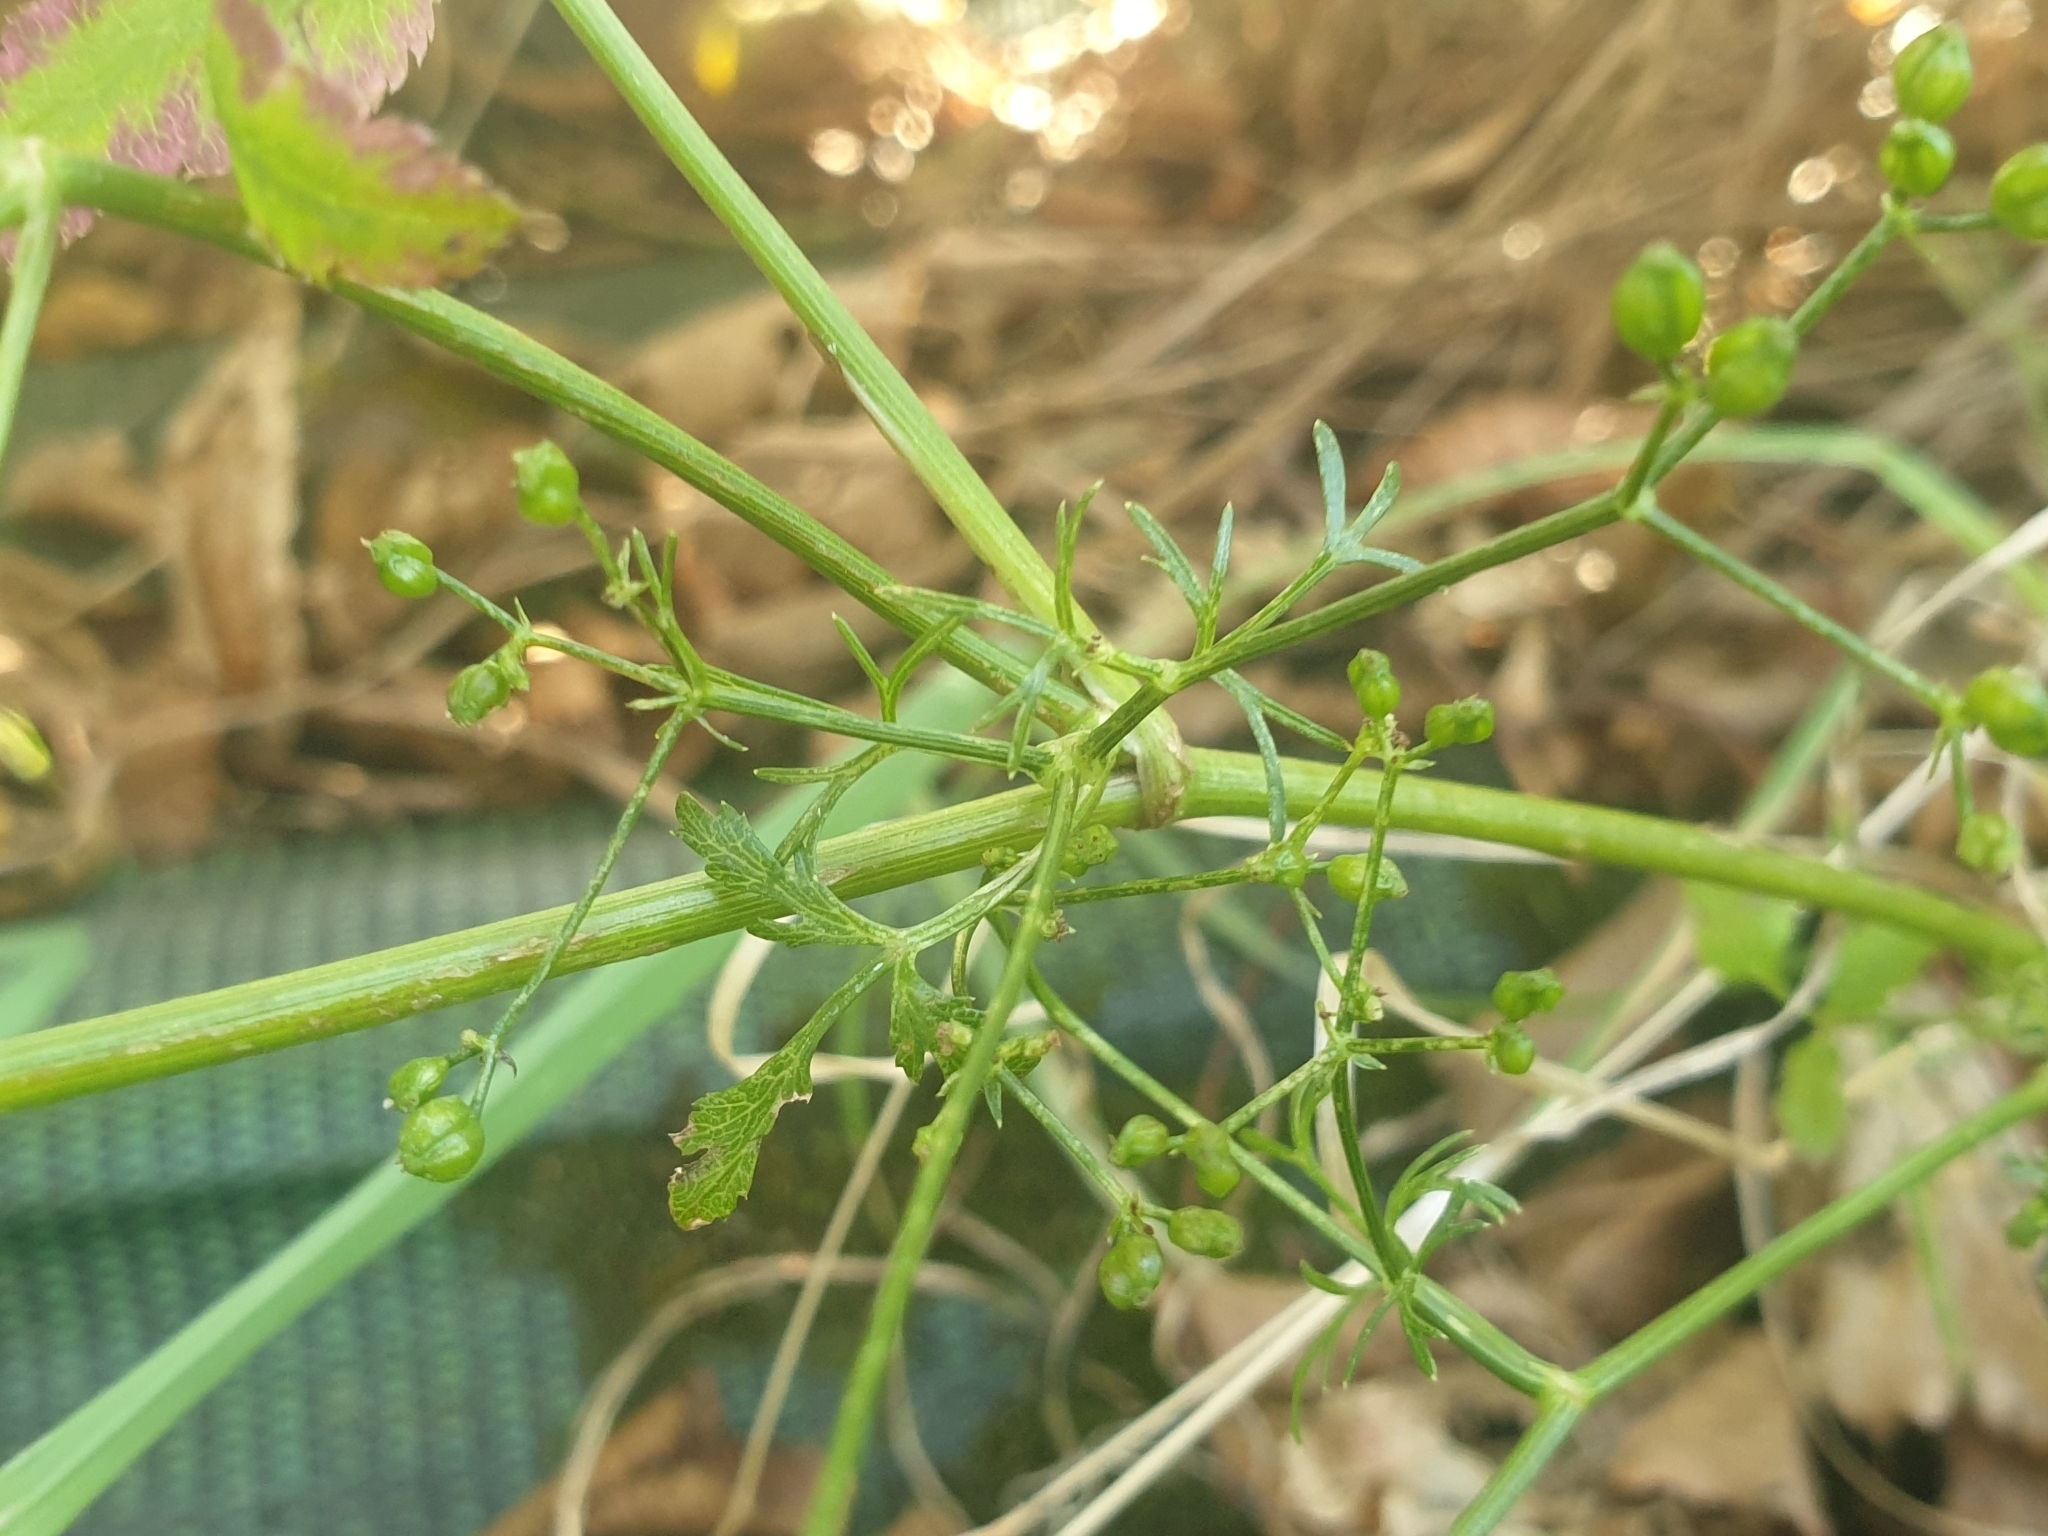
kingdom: Plantae
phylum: Tracheophyta
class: Magnoliopsida
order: Apiales
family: Apiaceae
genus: Sison
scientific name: Sison amomum
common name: Stone-parsley
